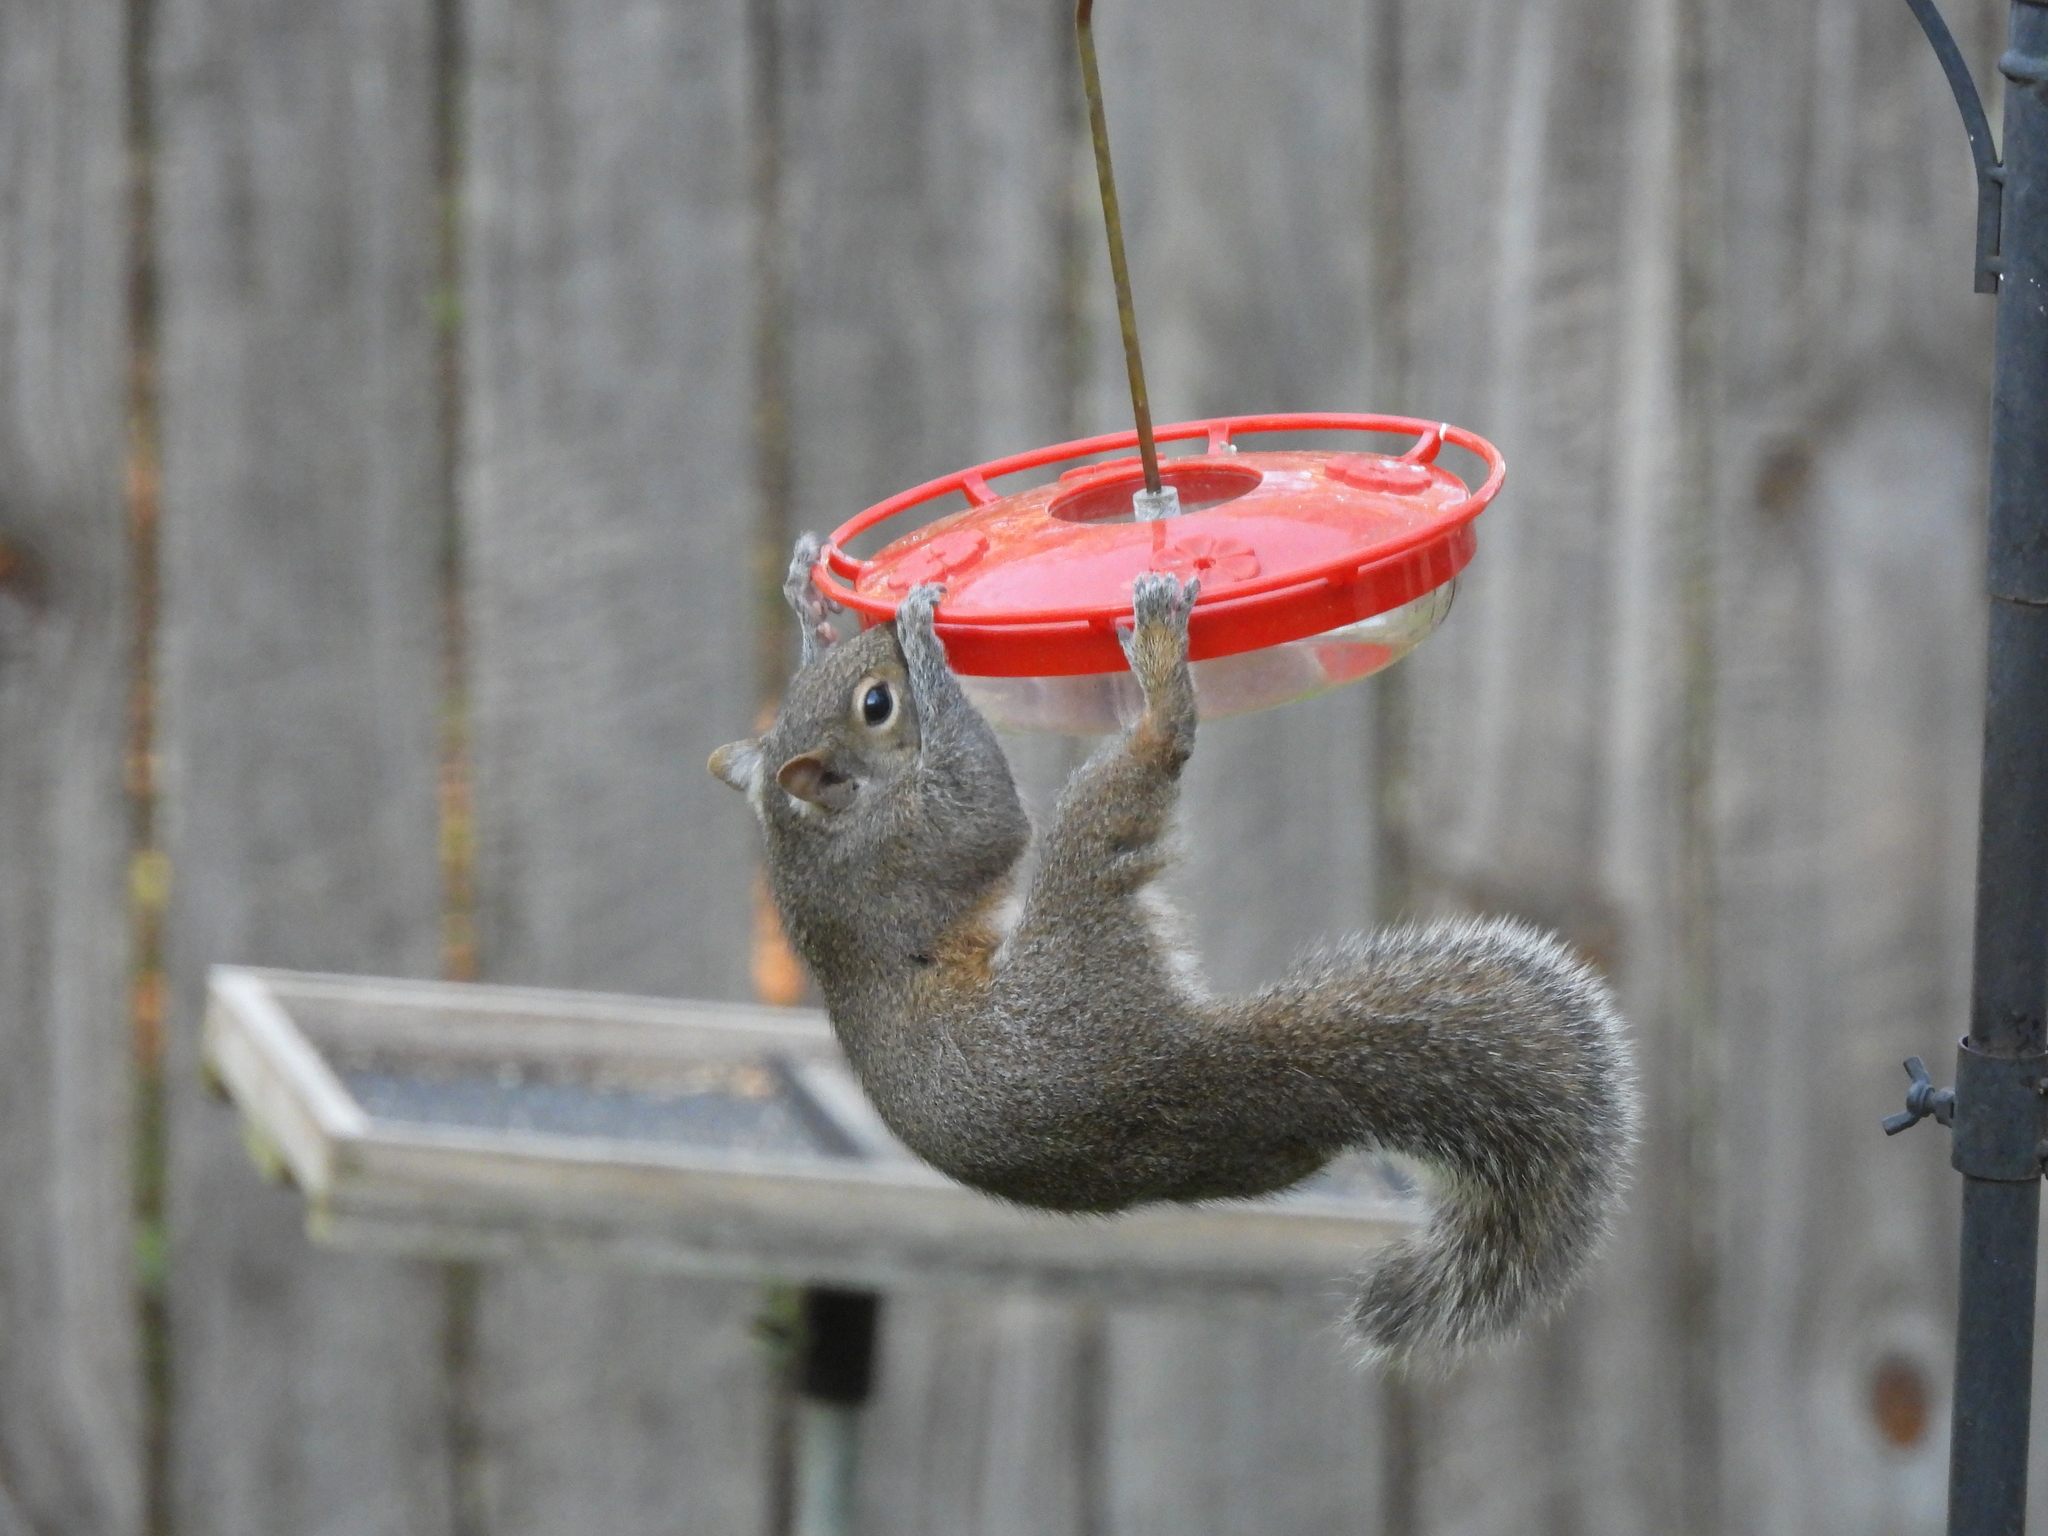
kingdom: Animalia
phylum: Chordata
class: Mammalia
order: Rodentia
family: Sciuridae
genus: Sciurus
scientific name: Sciurus carolinensis
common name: Eastern gray squirrel
